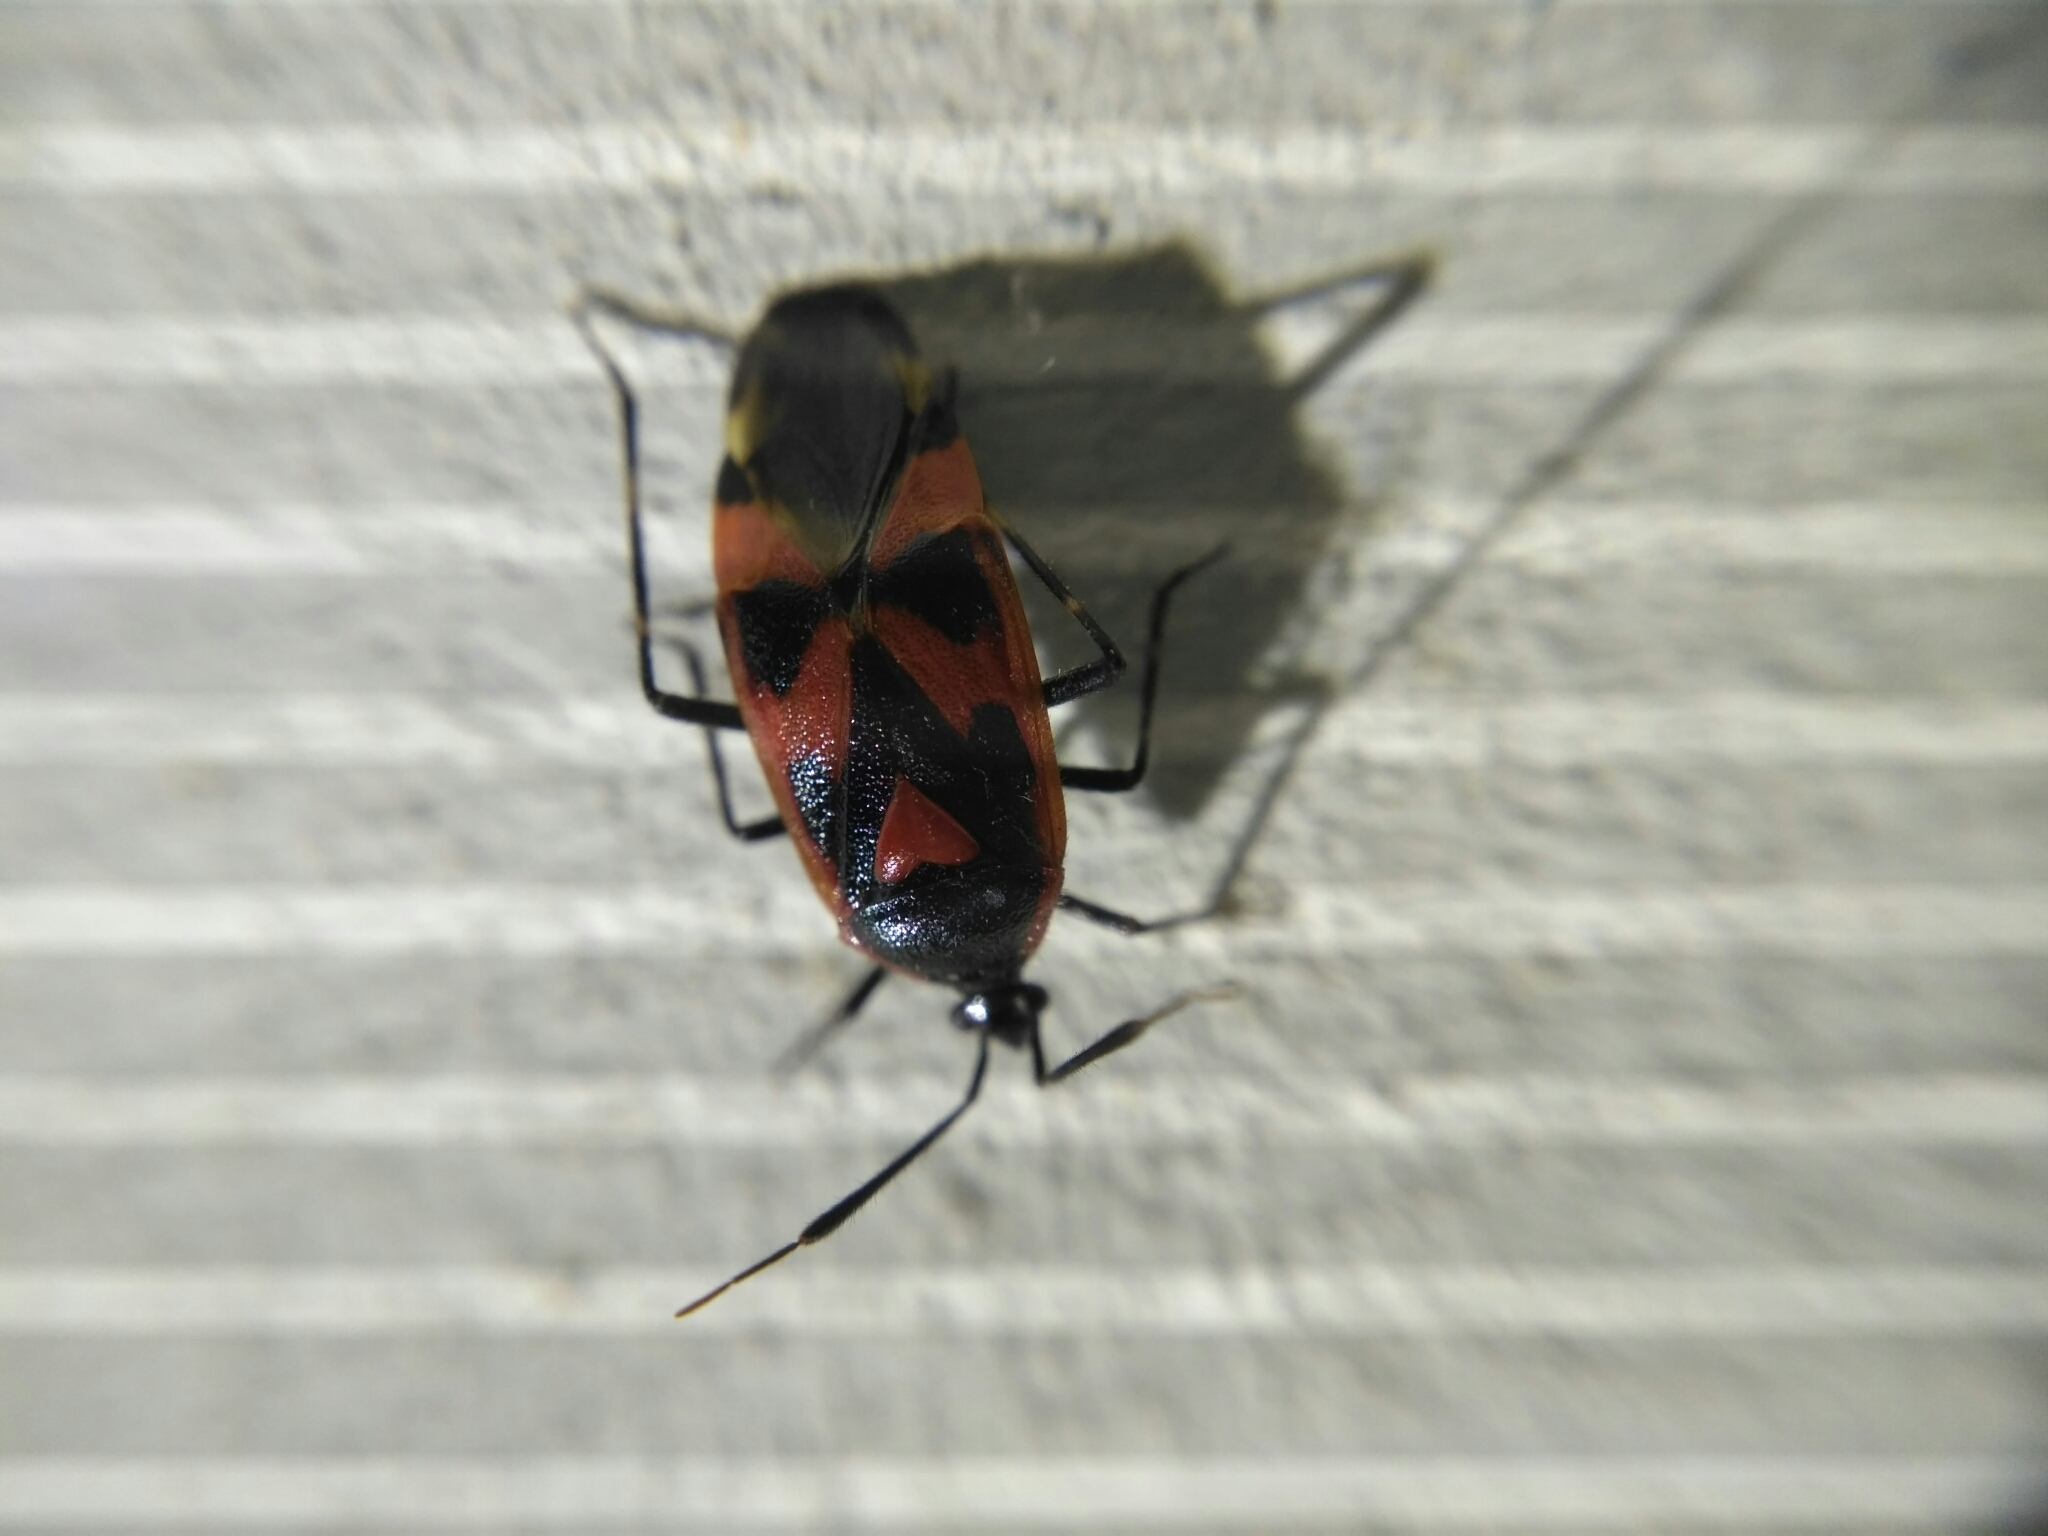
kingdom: Animalia
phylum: Arthropoda
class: Insecta
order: Hemiptera
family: Miridae
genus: Deraeocoris
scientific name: Deraeocoris trifasciatus
